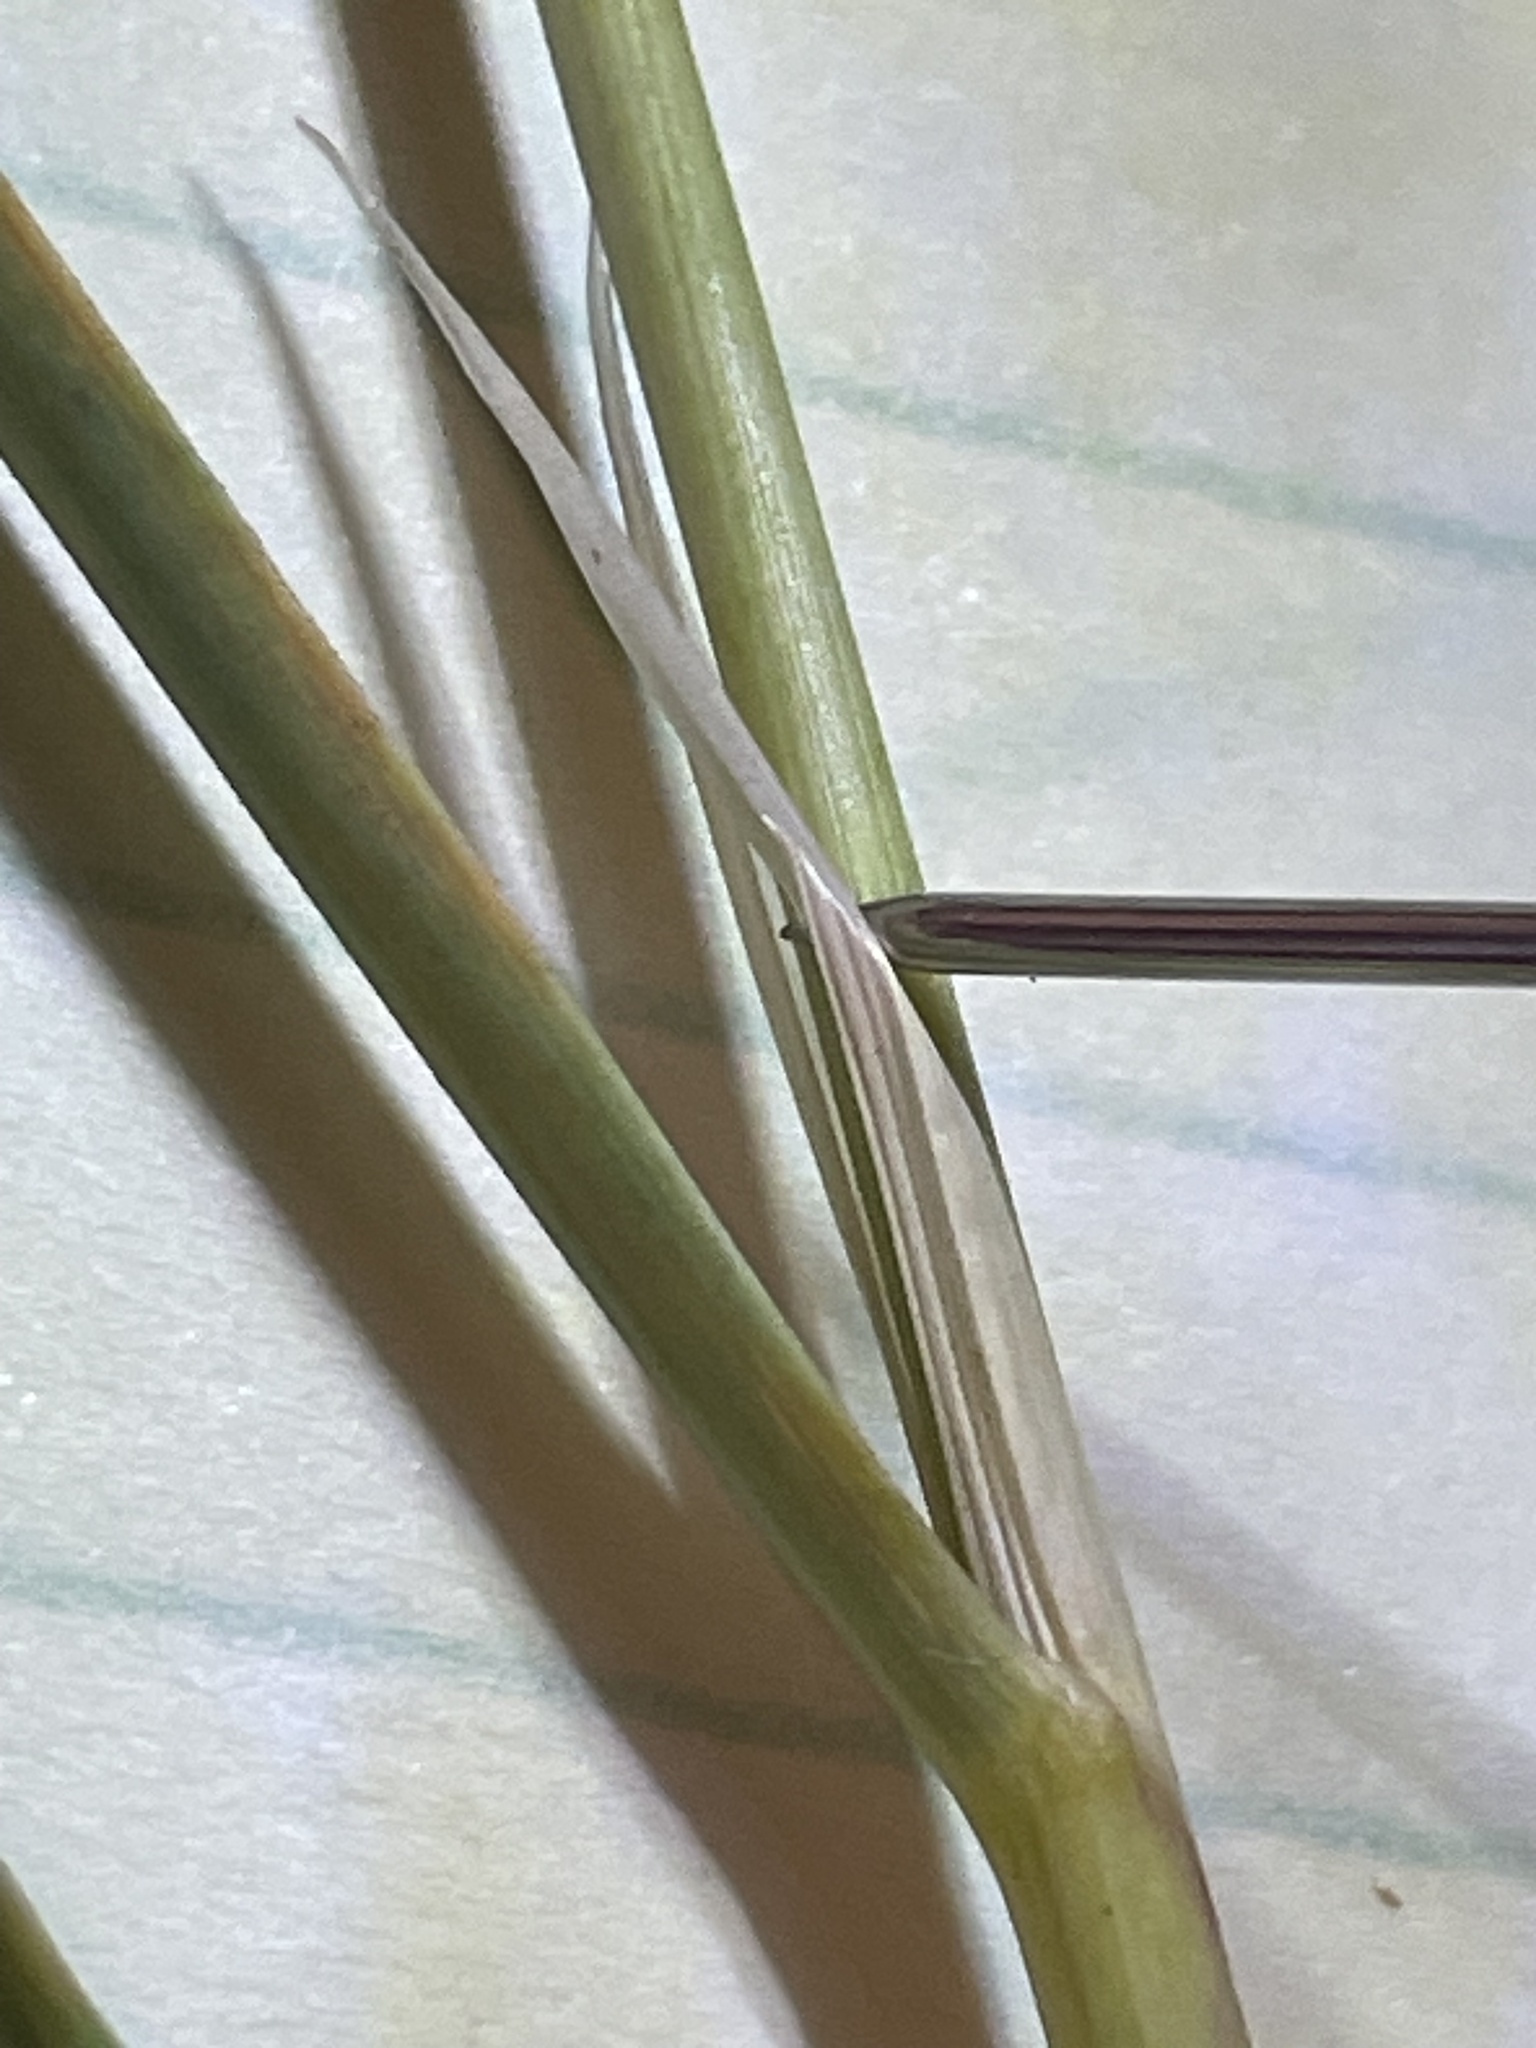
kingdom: Plantae
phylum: Tracheophyta
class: Liliopsida
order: Poales
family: Poaceae
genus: Calamagrostis
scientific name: Calamagrostis arenaria
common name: European beachgrass
